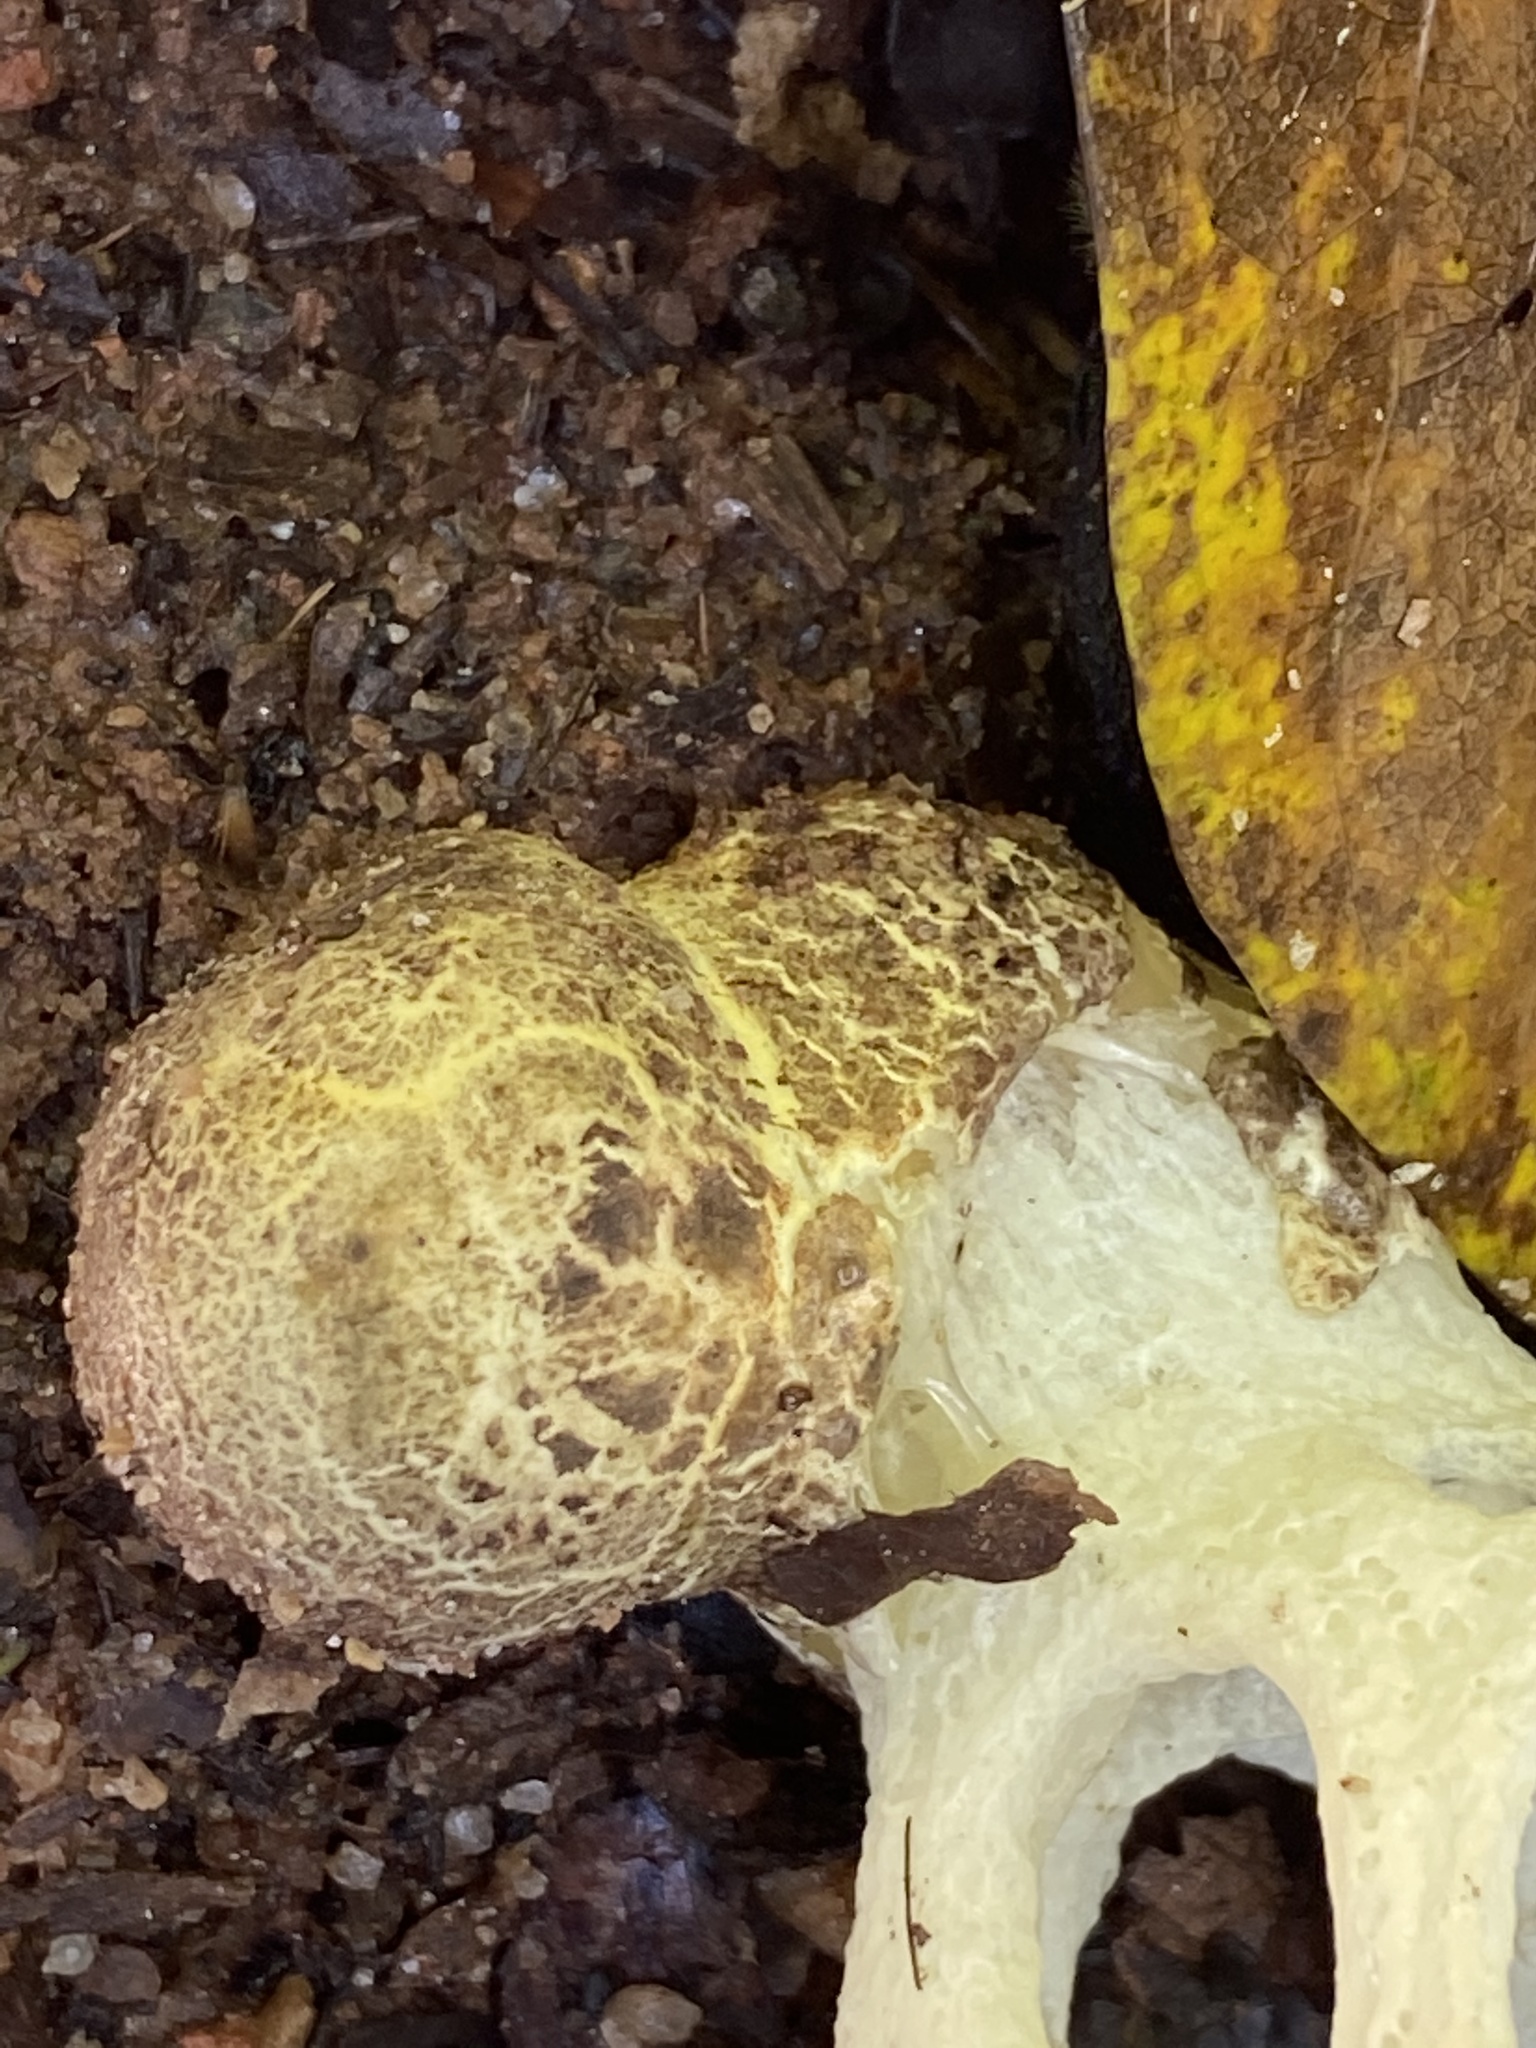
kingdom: Fungi
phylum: Basidiomycota
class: Agaricomycetes
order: Phallales
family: Phallaceae
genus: Clathrus
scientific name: Clathrus chrysomycelinus
